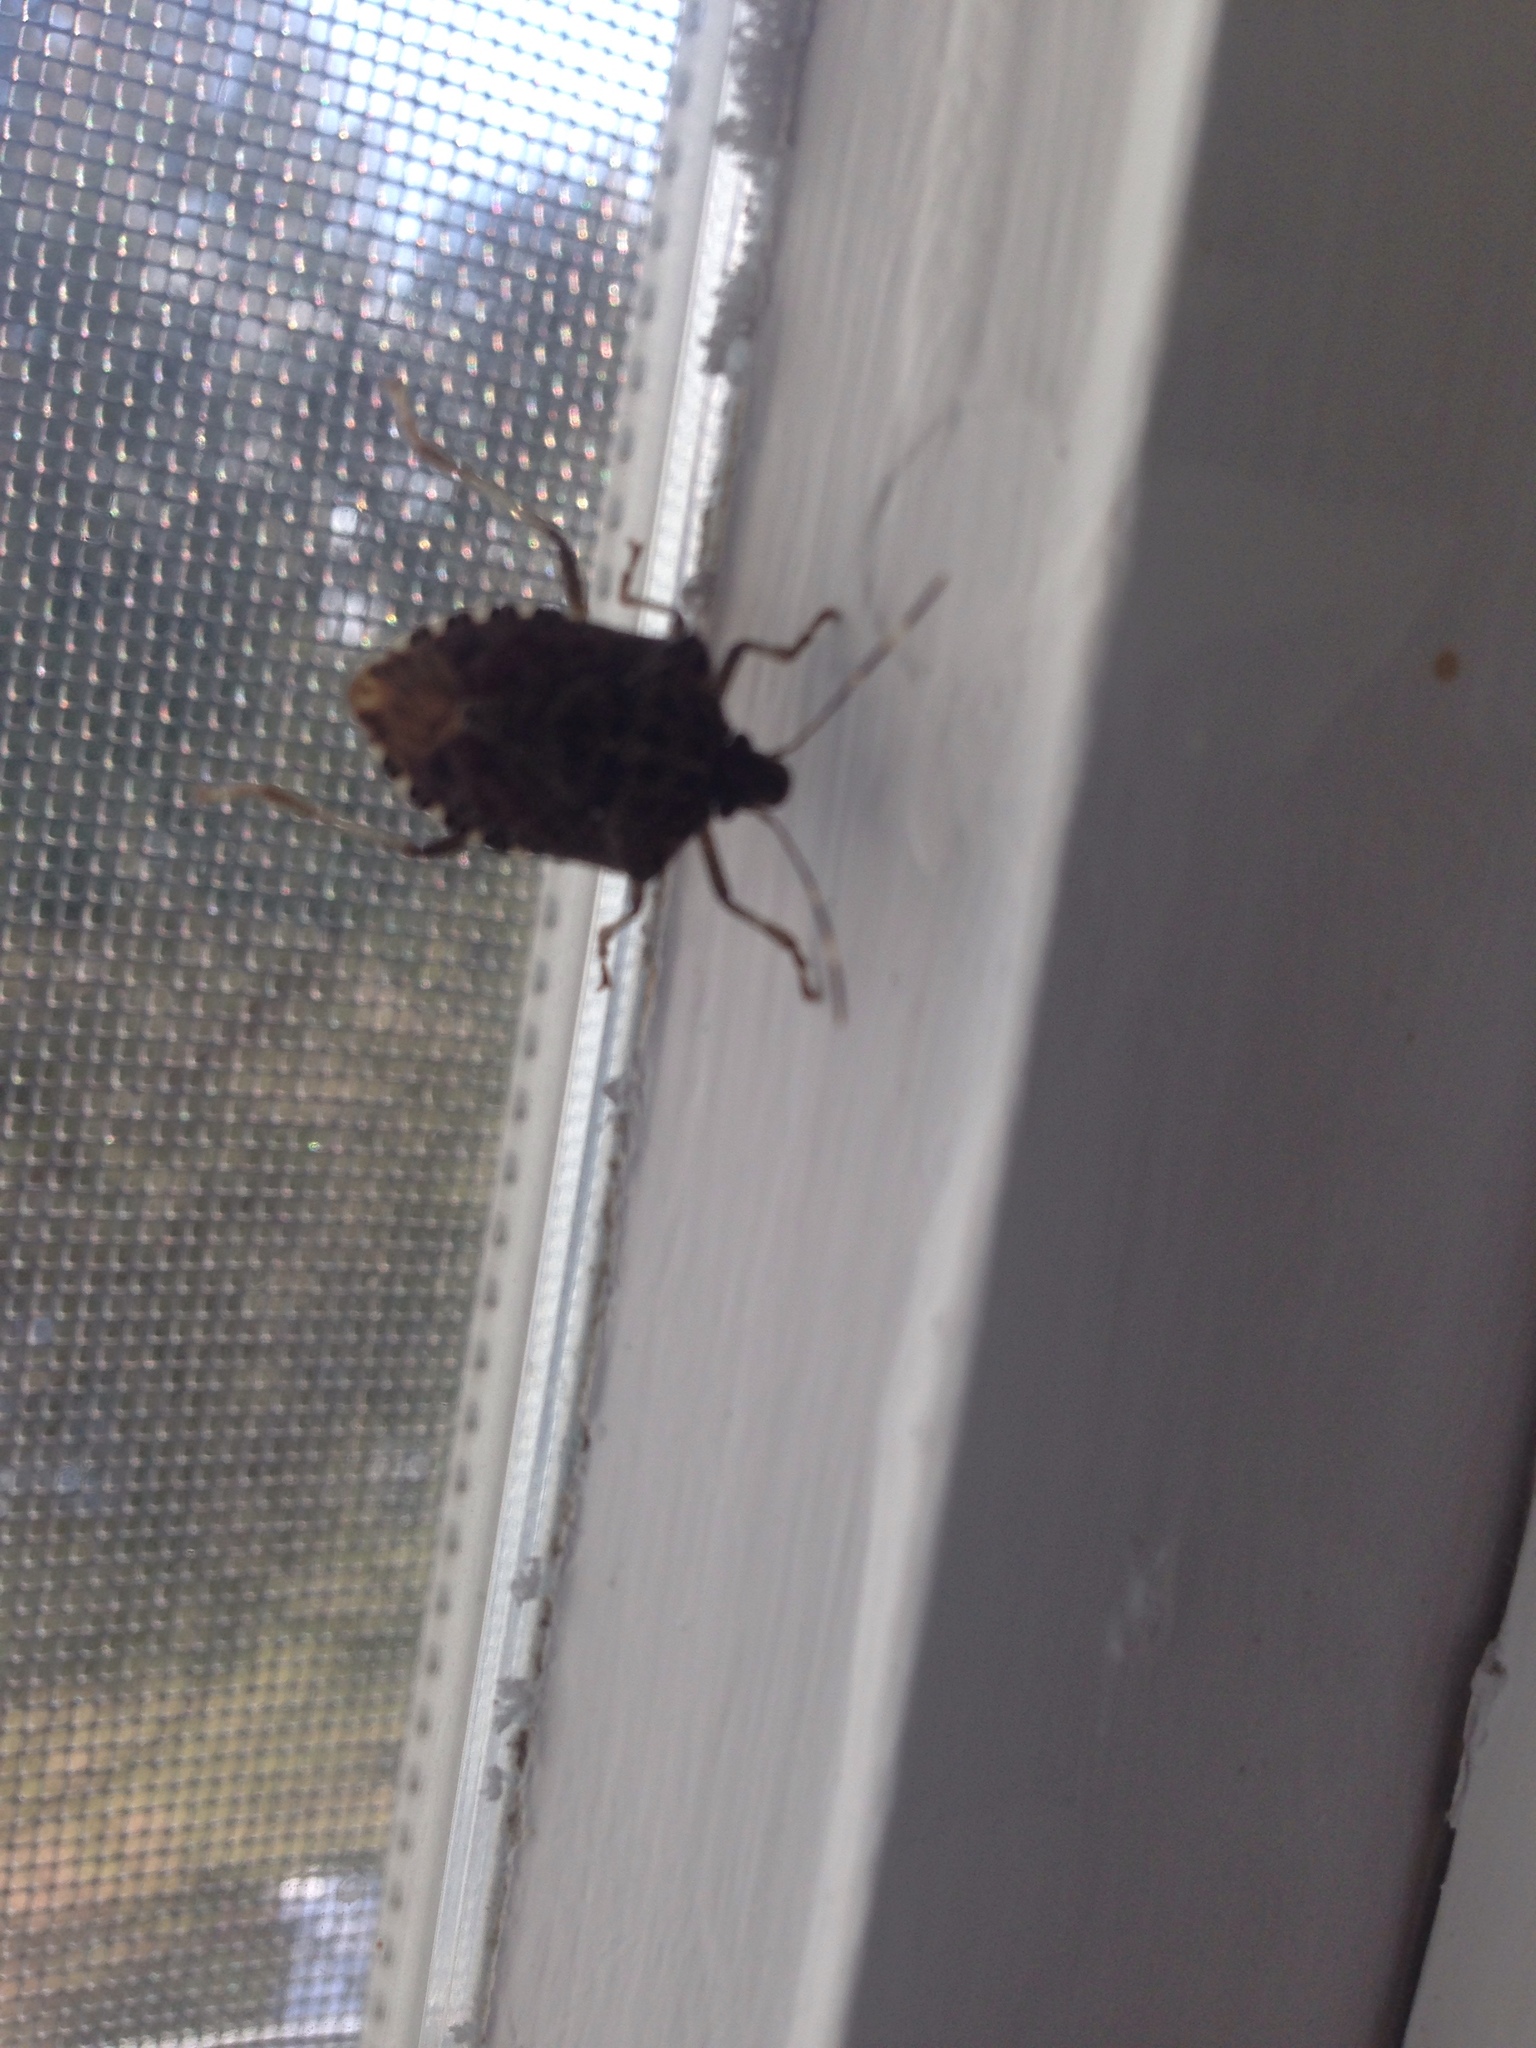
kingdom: Animalia
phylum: Arthropoda
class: Insecta
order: Hemiptera
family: Pentatomidae
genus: Halyomorpha
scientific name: Halyomorpha halys
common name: Brown marmorated stink bug
